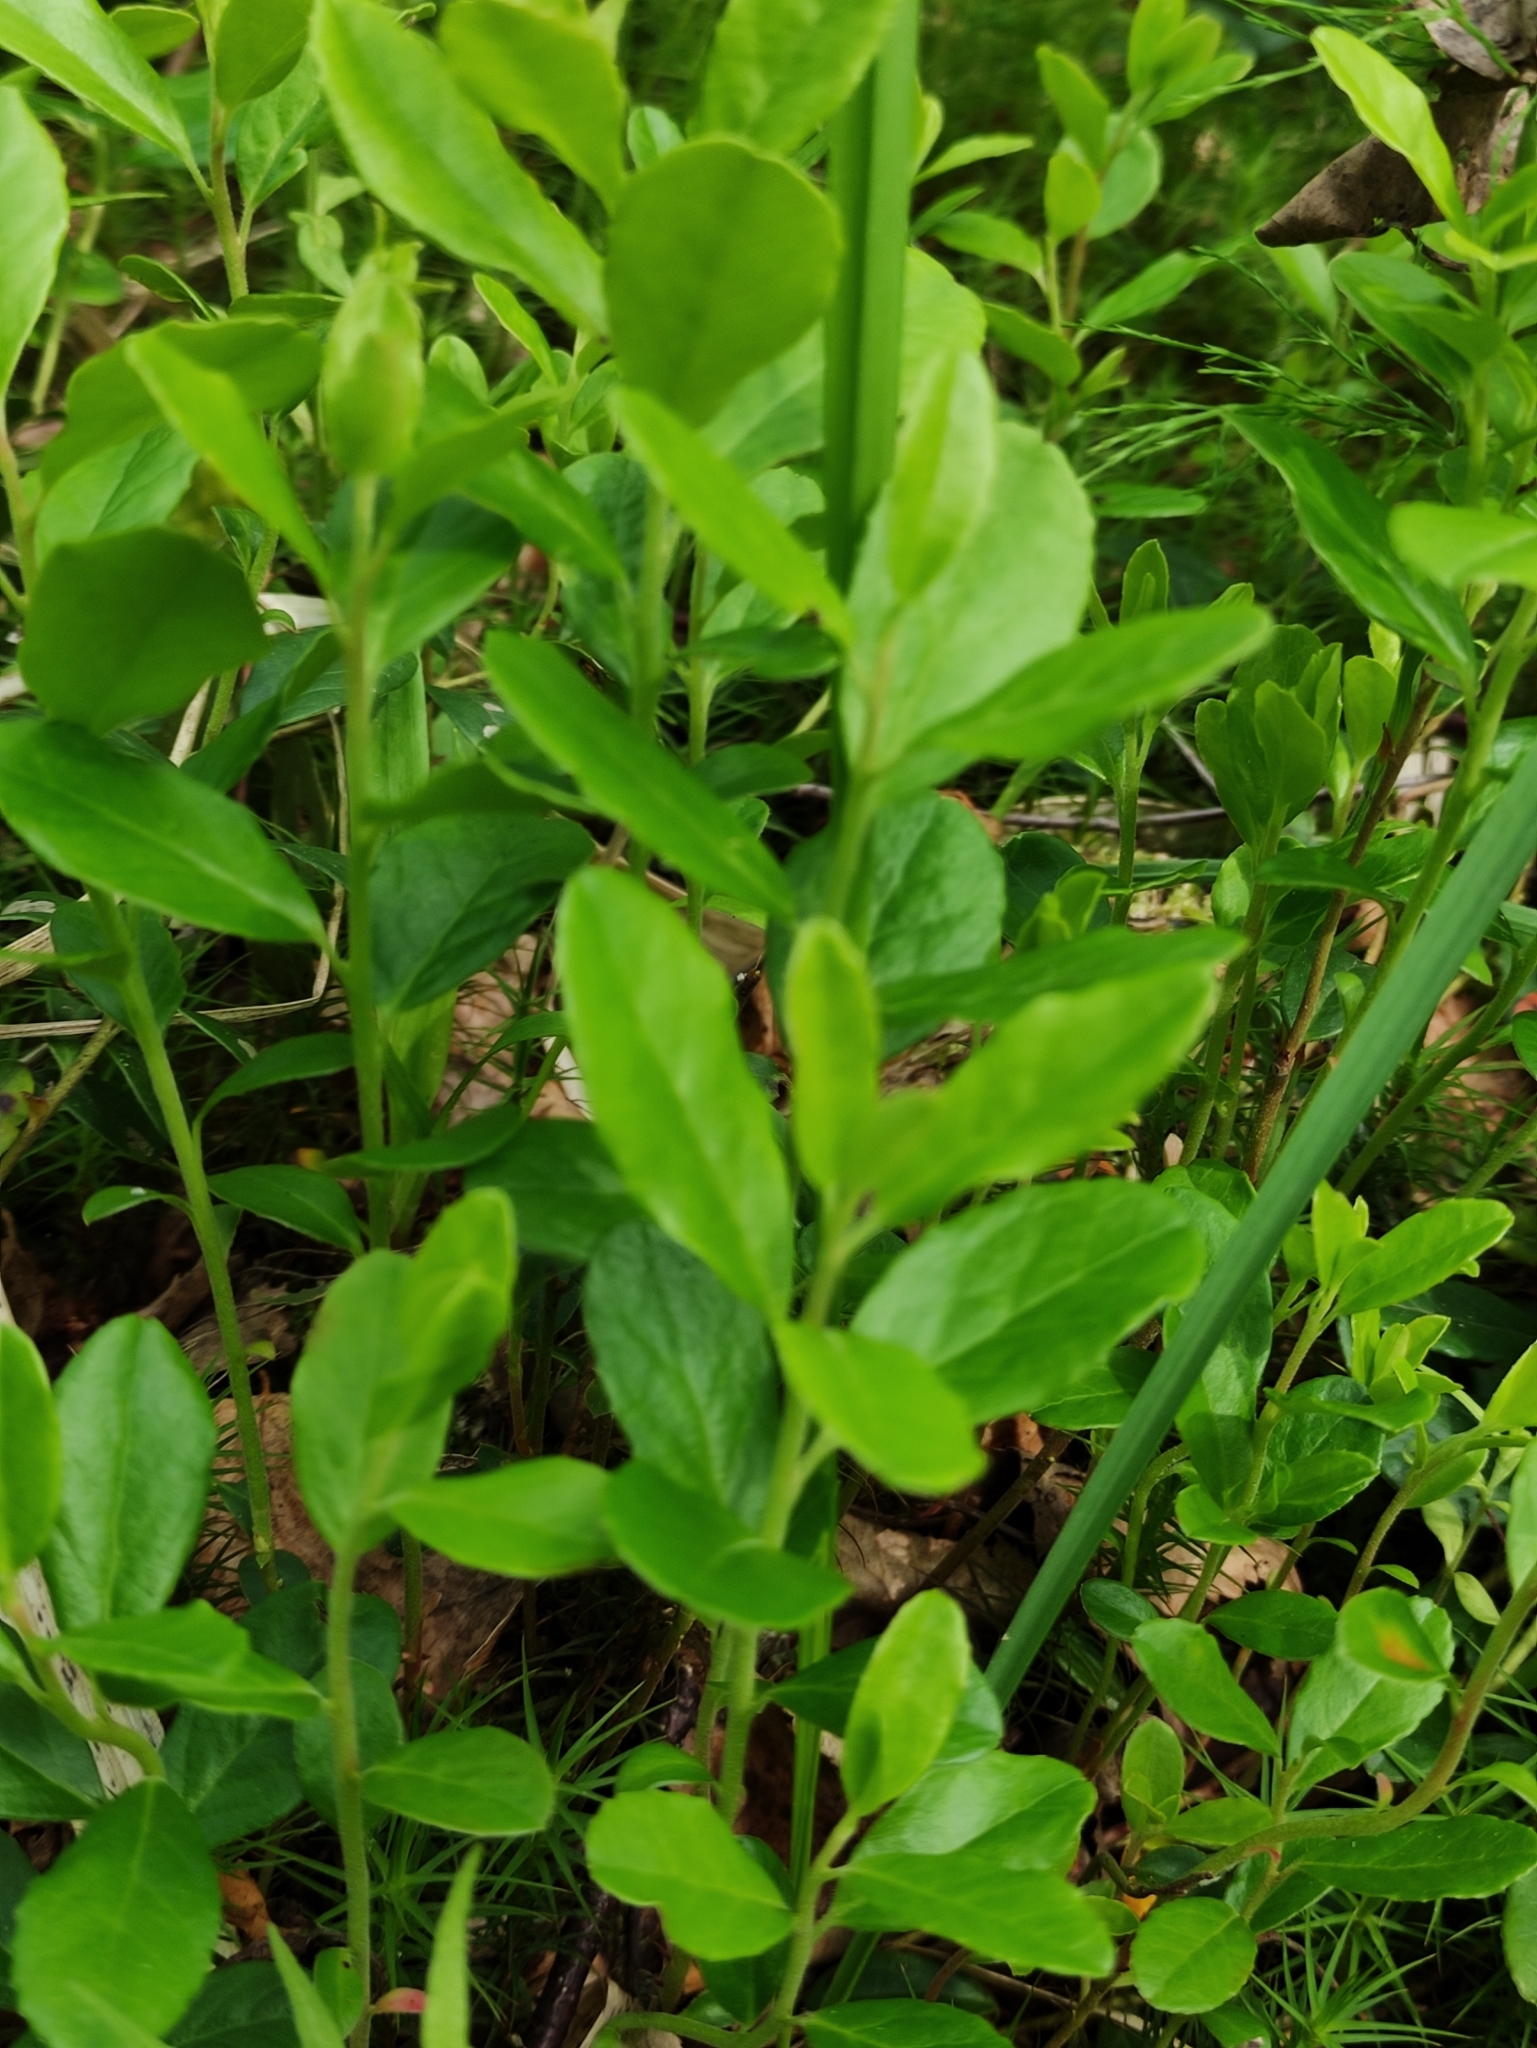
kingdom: Plantae
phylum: Tracheophyta
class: Magnoliopsida
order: Ericales
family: Ericaceae
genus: Vaccinium
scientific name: Vaccinium vitis-idaea
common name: Cowberry
